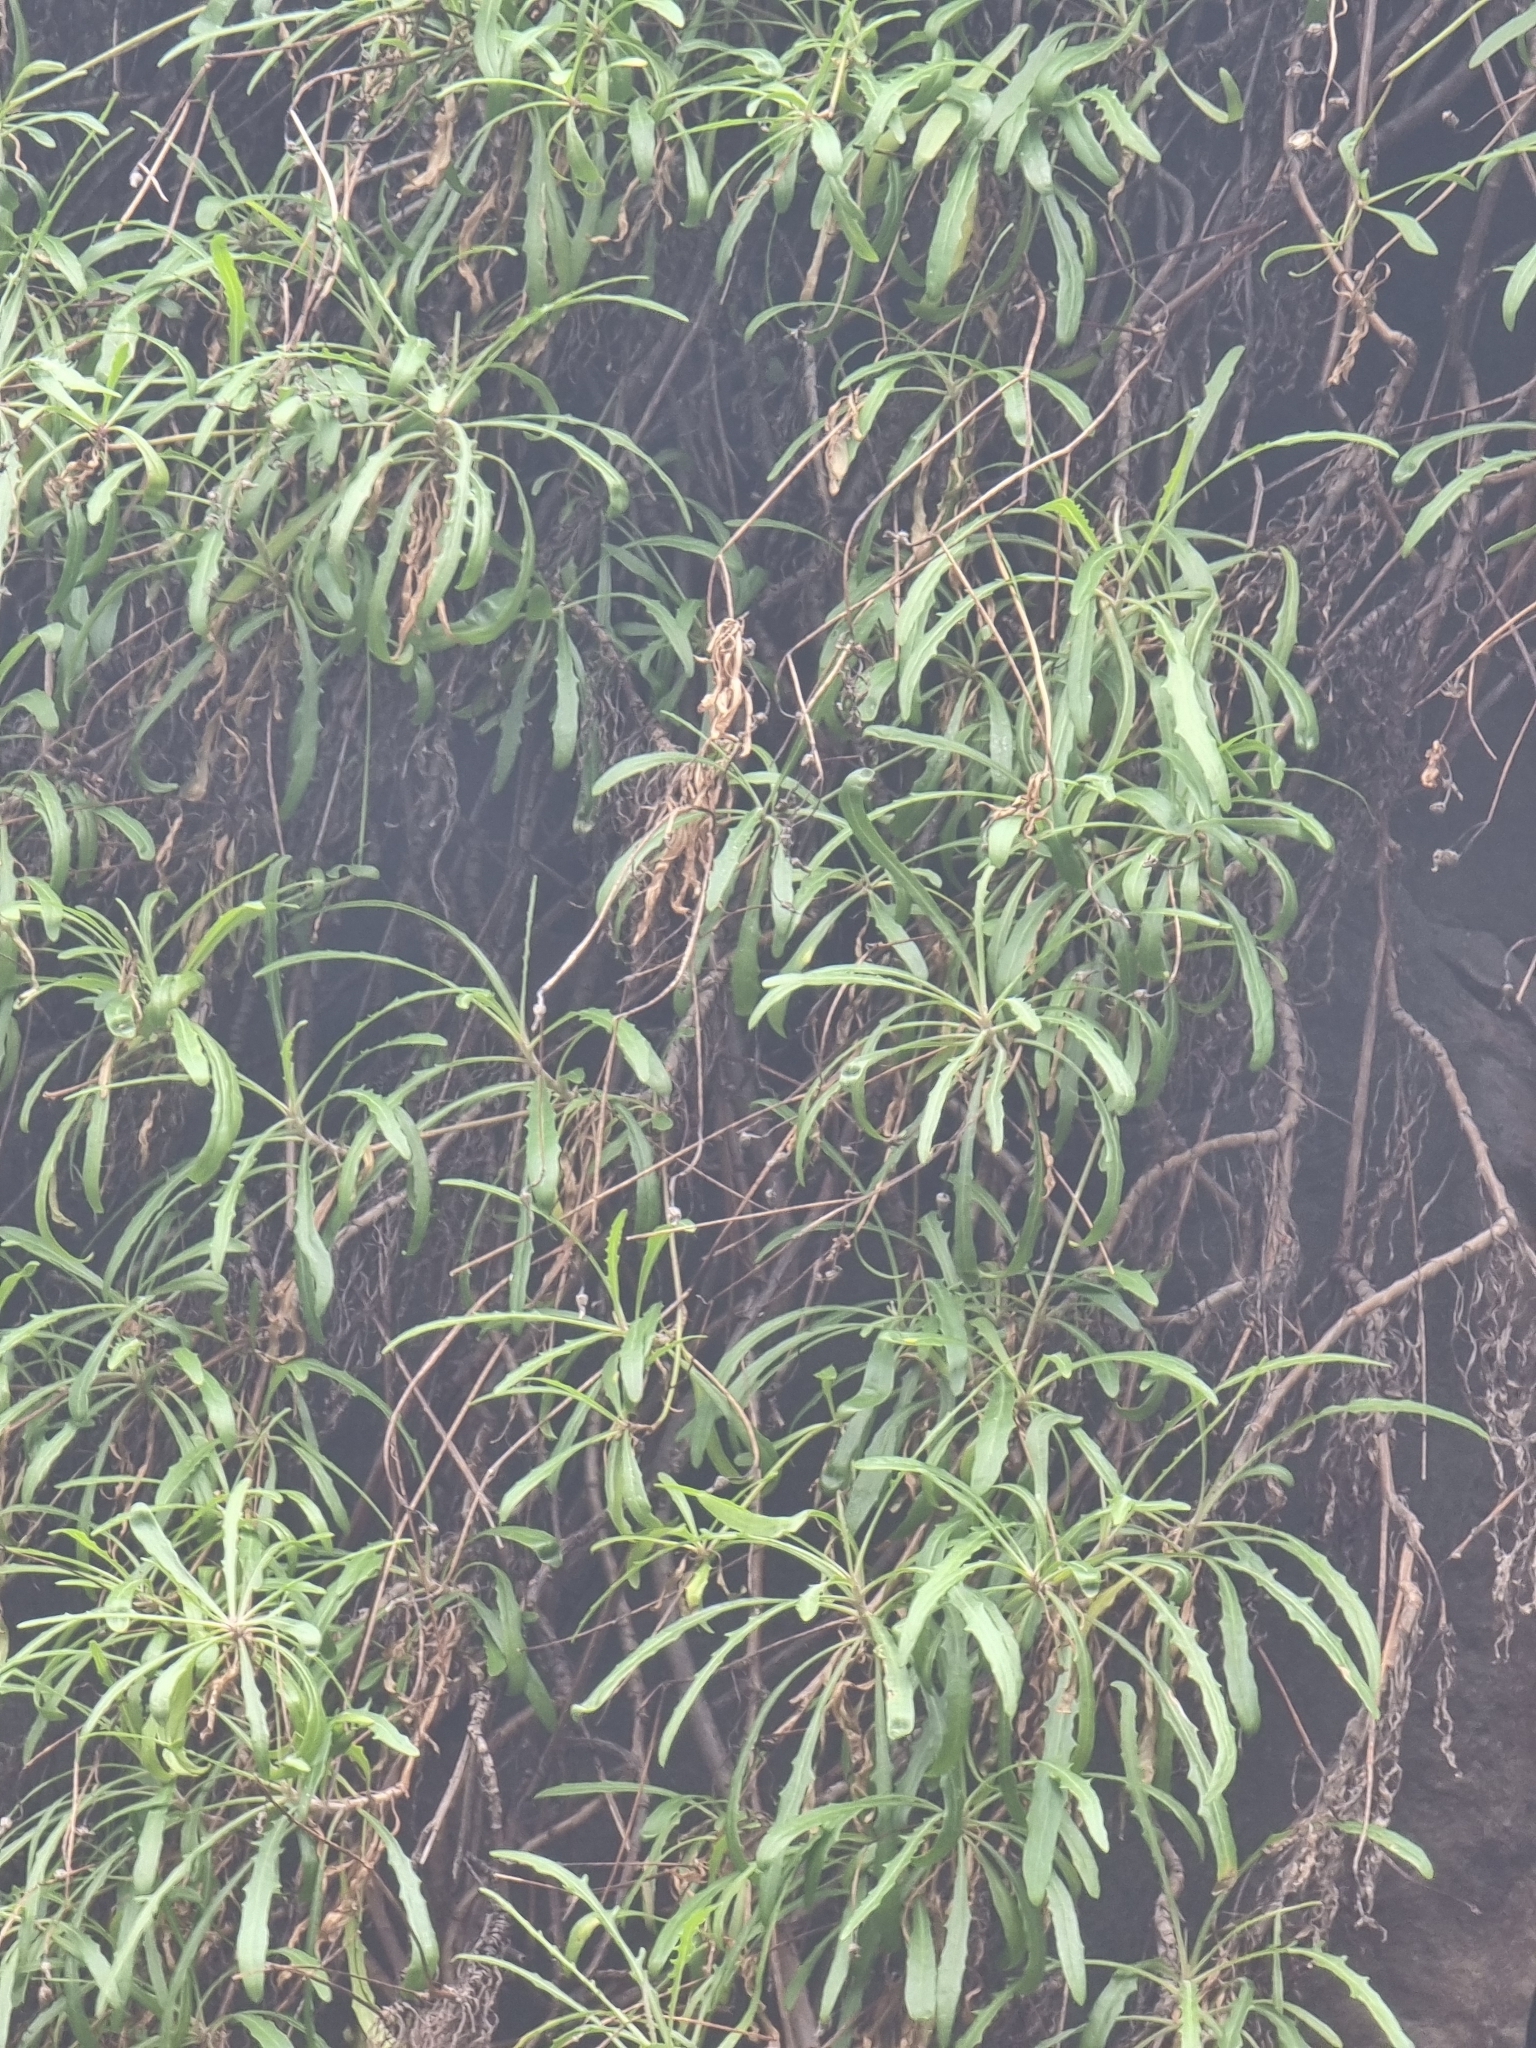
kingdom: Plantae
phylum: Tracheophyta
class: Magnoliopsida
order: Asterales
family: Asteraceae
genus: Tolpis
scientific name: Tolpis succulenta
